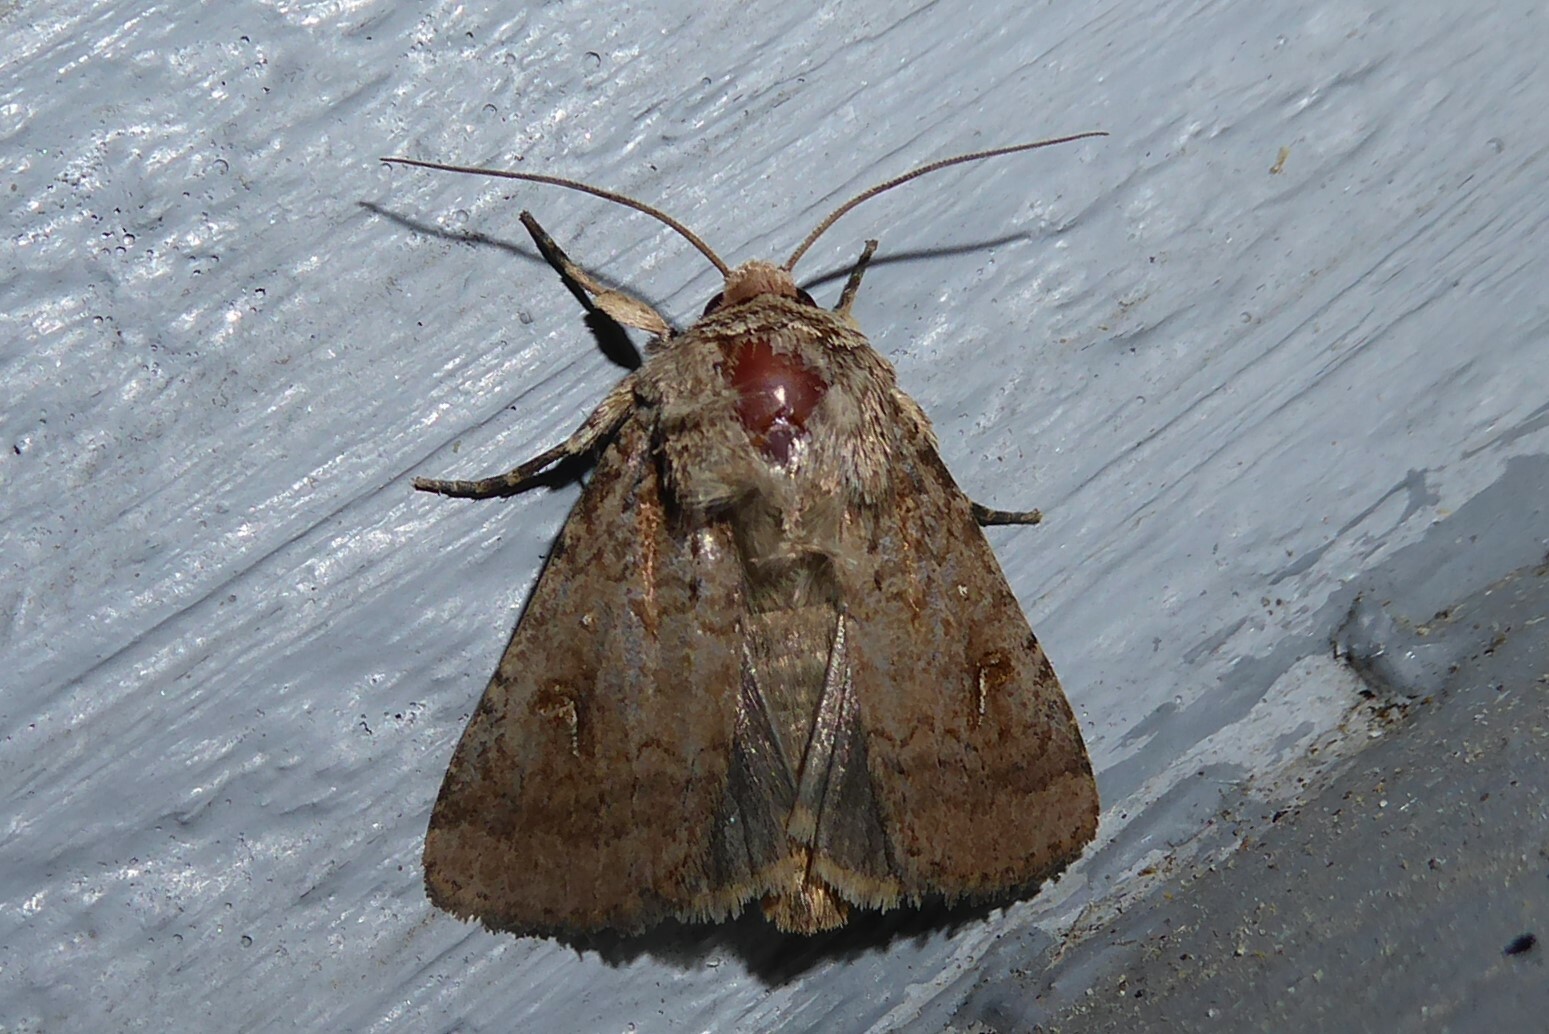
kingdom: Animalia
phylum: Arthropoda
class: Insecta
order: Lepidoptera
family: Noctuidae
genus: Proteuxoa
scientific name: Proteuxoa tetronycha
